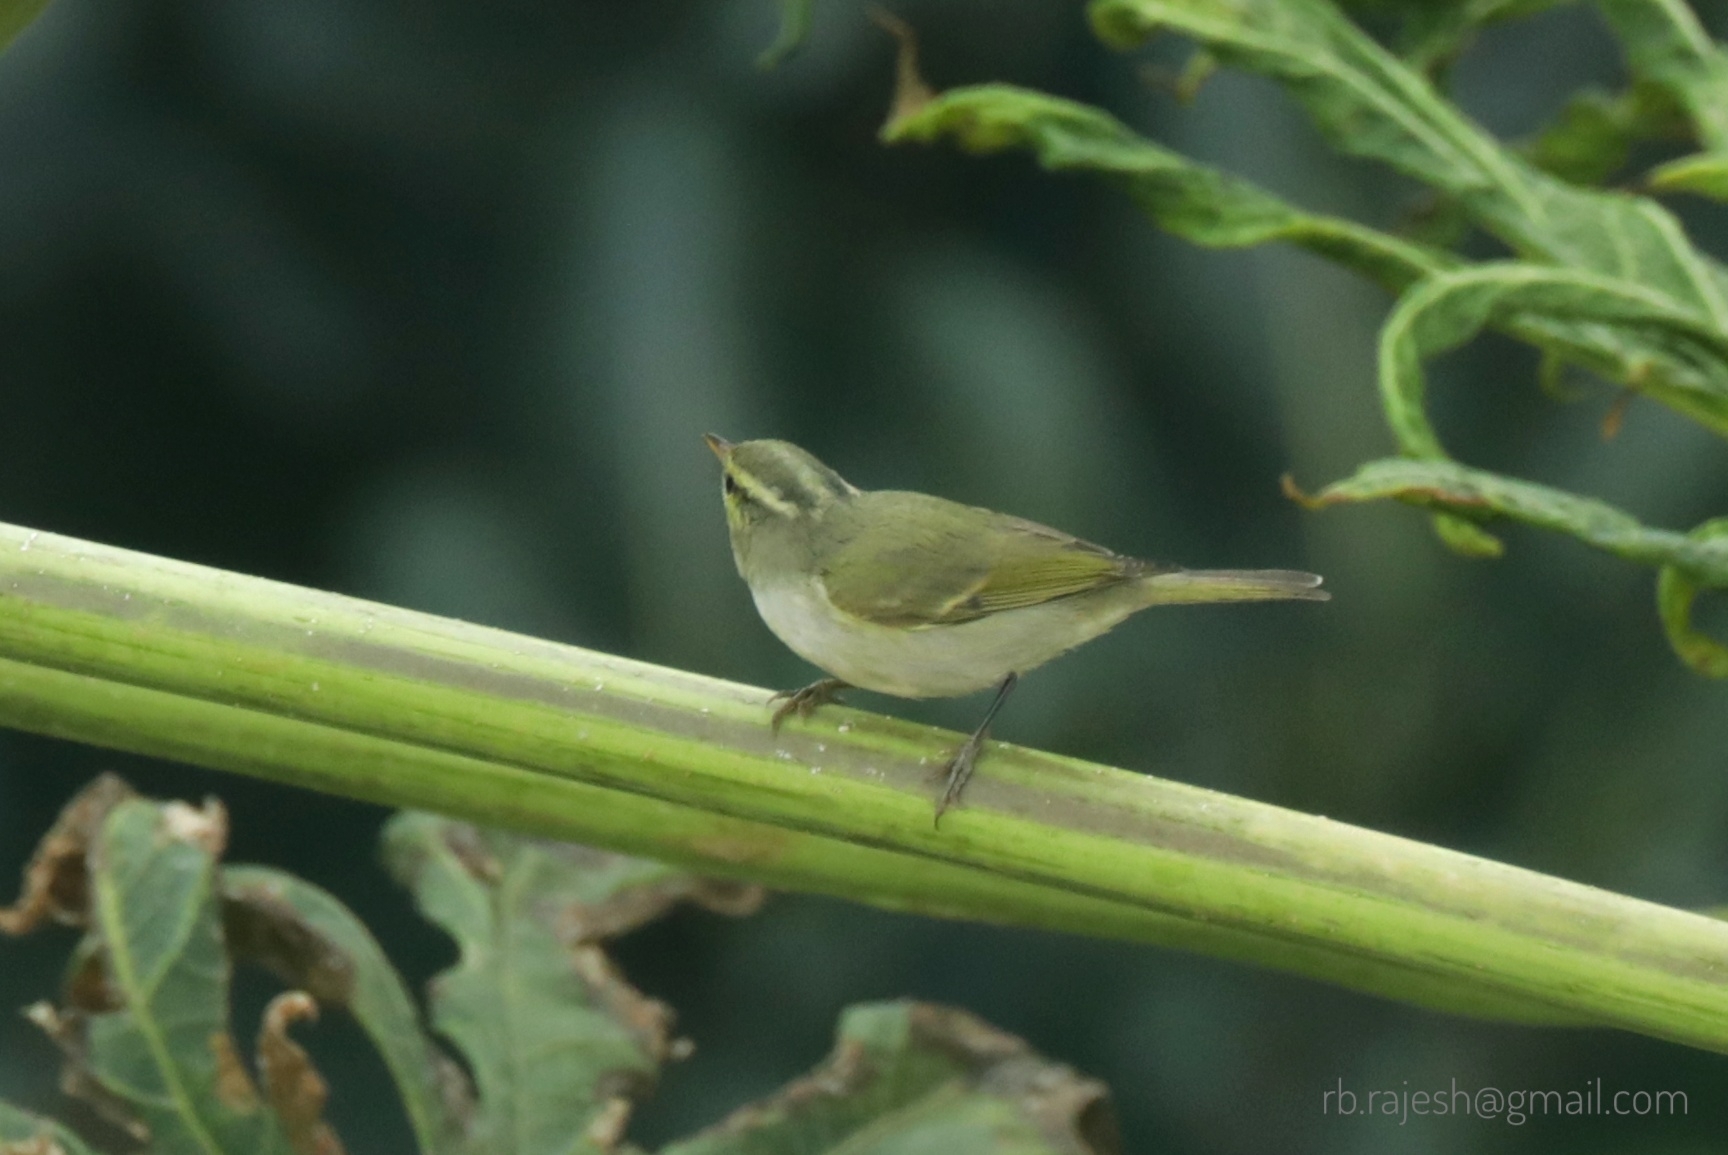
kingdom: Animalia
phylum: Chordata
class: Aves
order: Passeriformes
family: Phylloscopidae
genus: Phylloscopus
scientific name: Phylloscopus occipitalis
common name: Western crowned warbler
